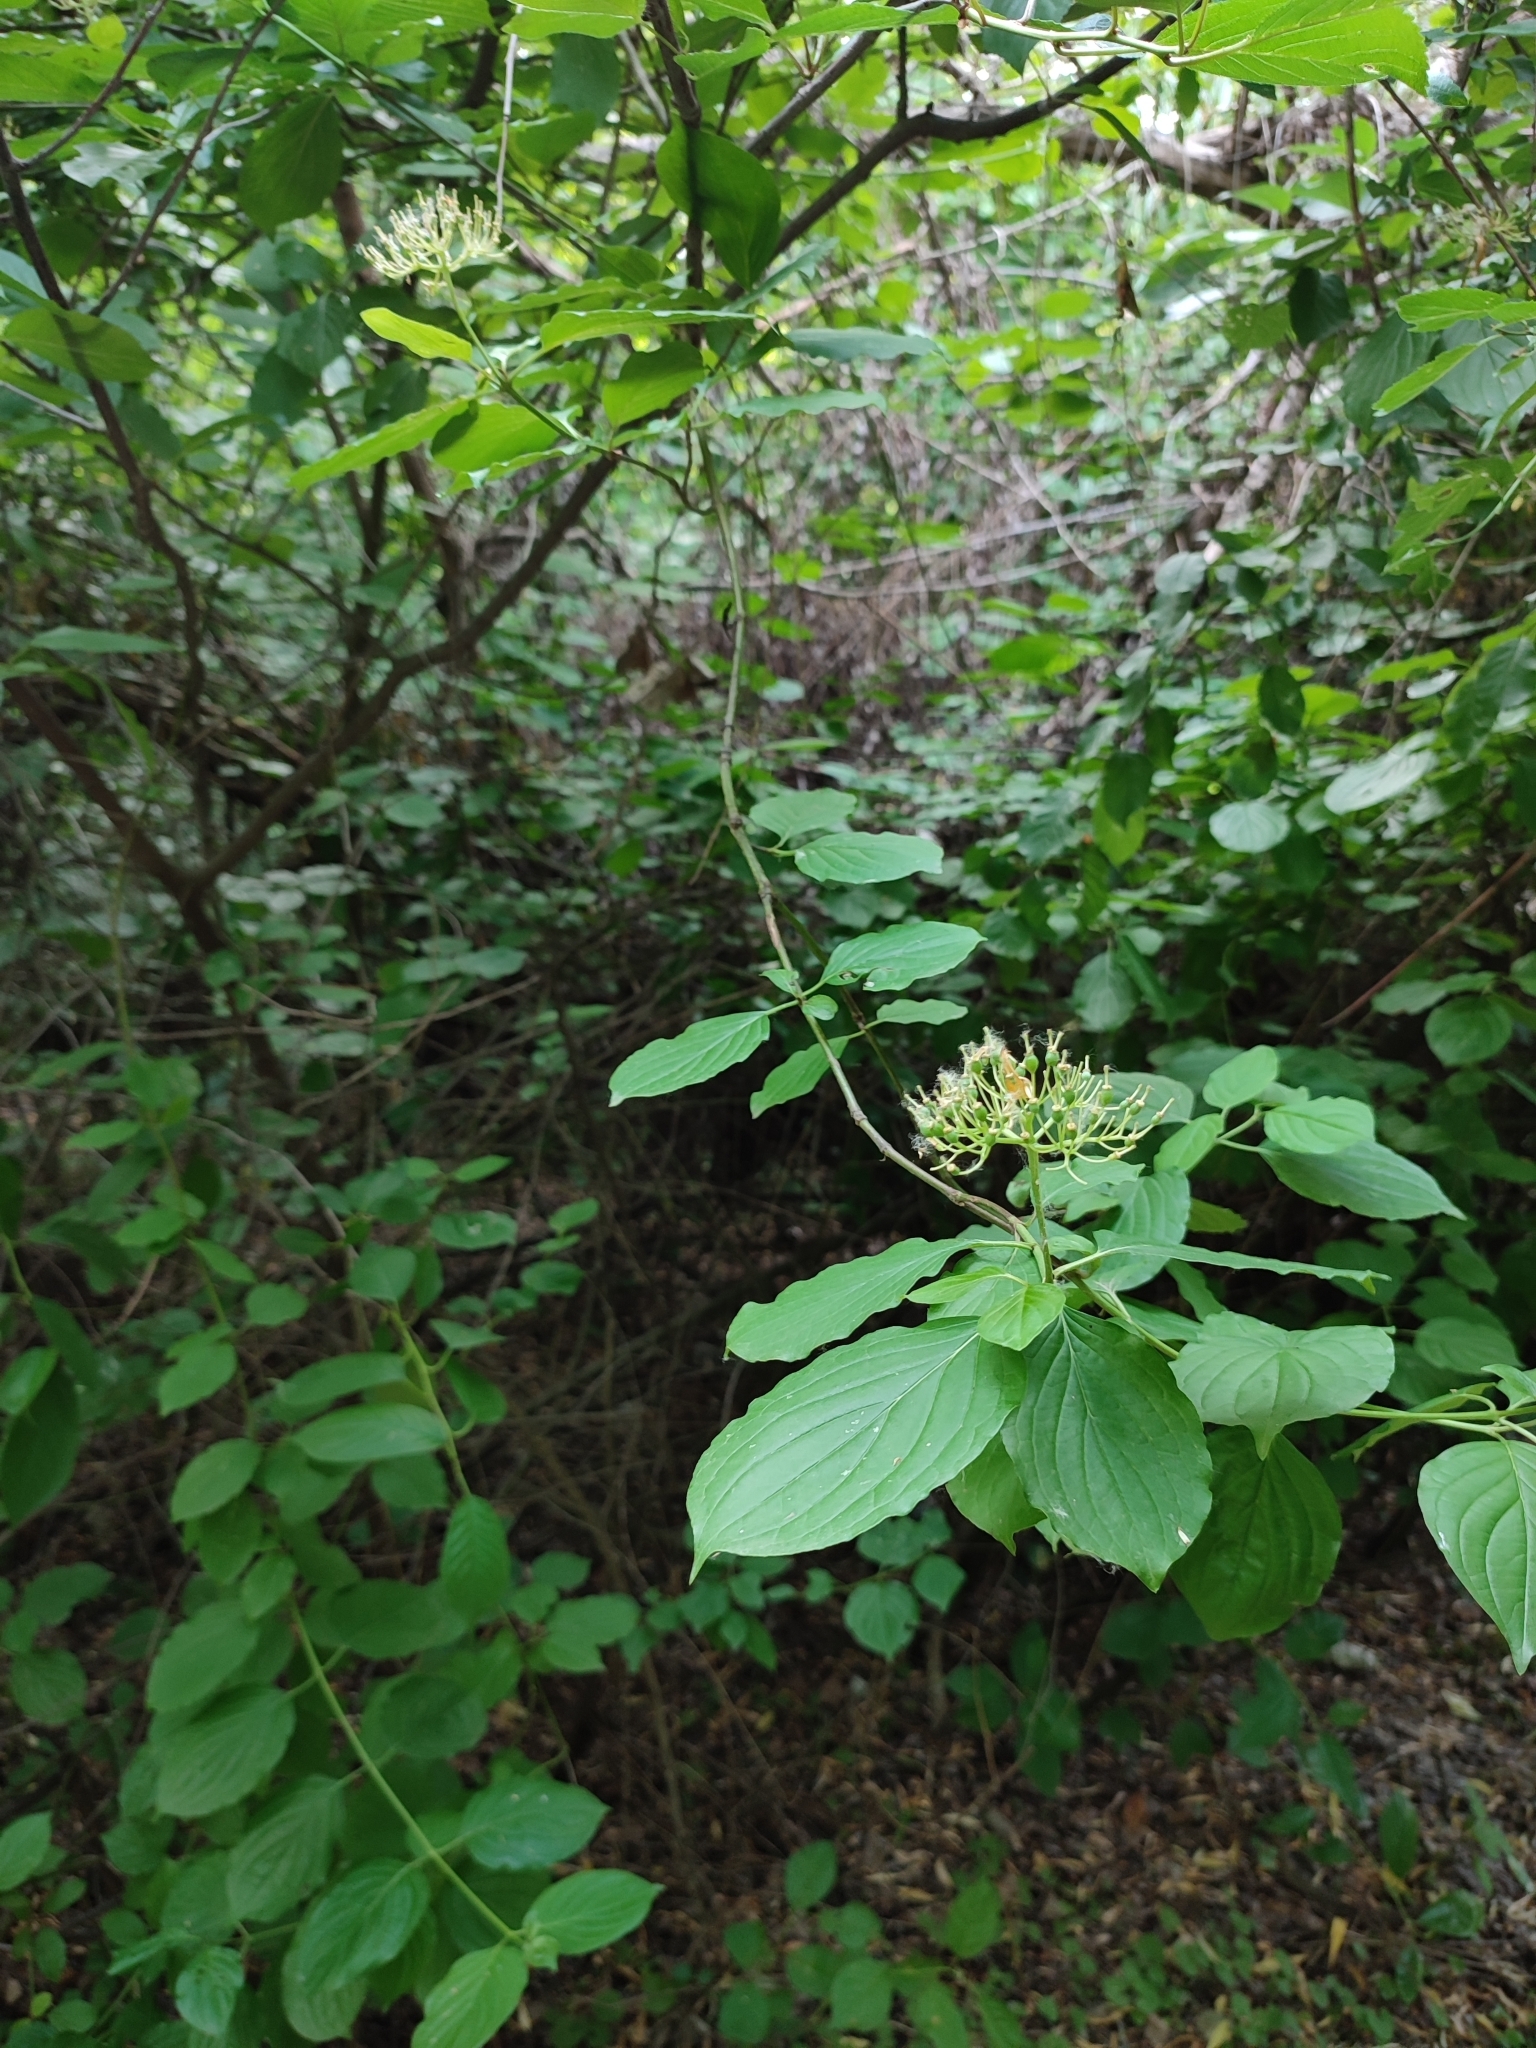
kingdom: Plantae
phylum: Tracheophyta
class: Magnoliopsida
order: Cornales
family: Cornaceae
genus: Cornus
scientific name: Cornus alba
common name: White dogwood
